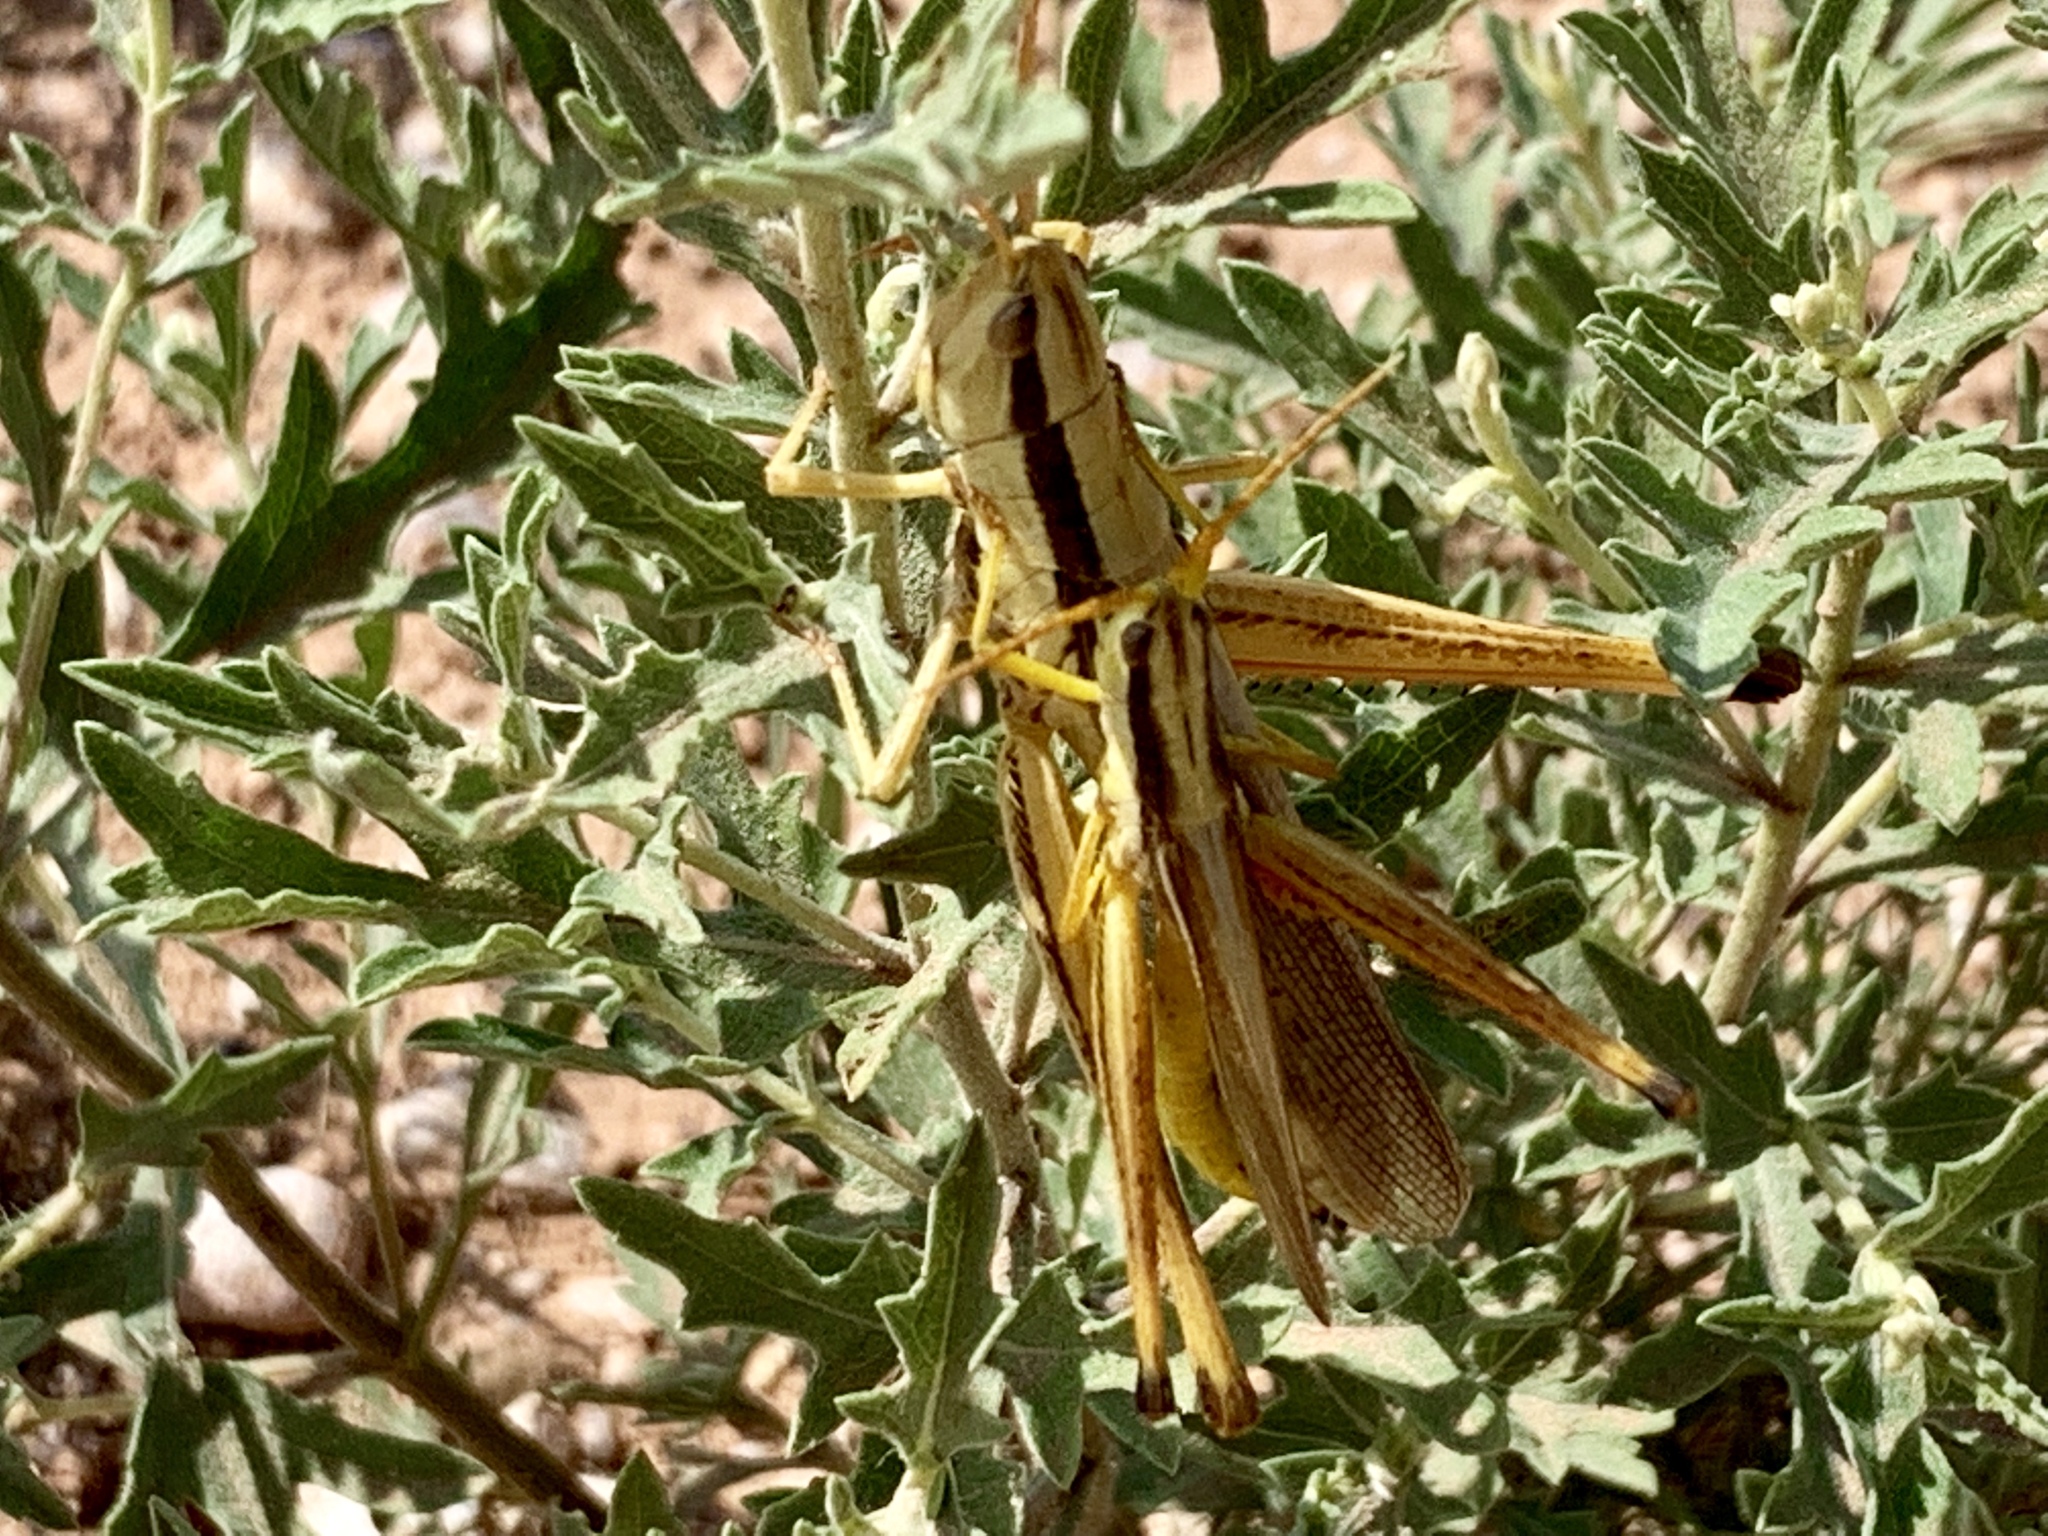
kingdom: Animalia
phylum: Arthropoda
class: Insecta
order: Orthoptera
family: Acrididae
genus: Mermiria
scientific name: Mermiria bivittata
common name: Two-striped mermiria grasshopper
